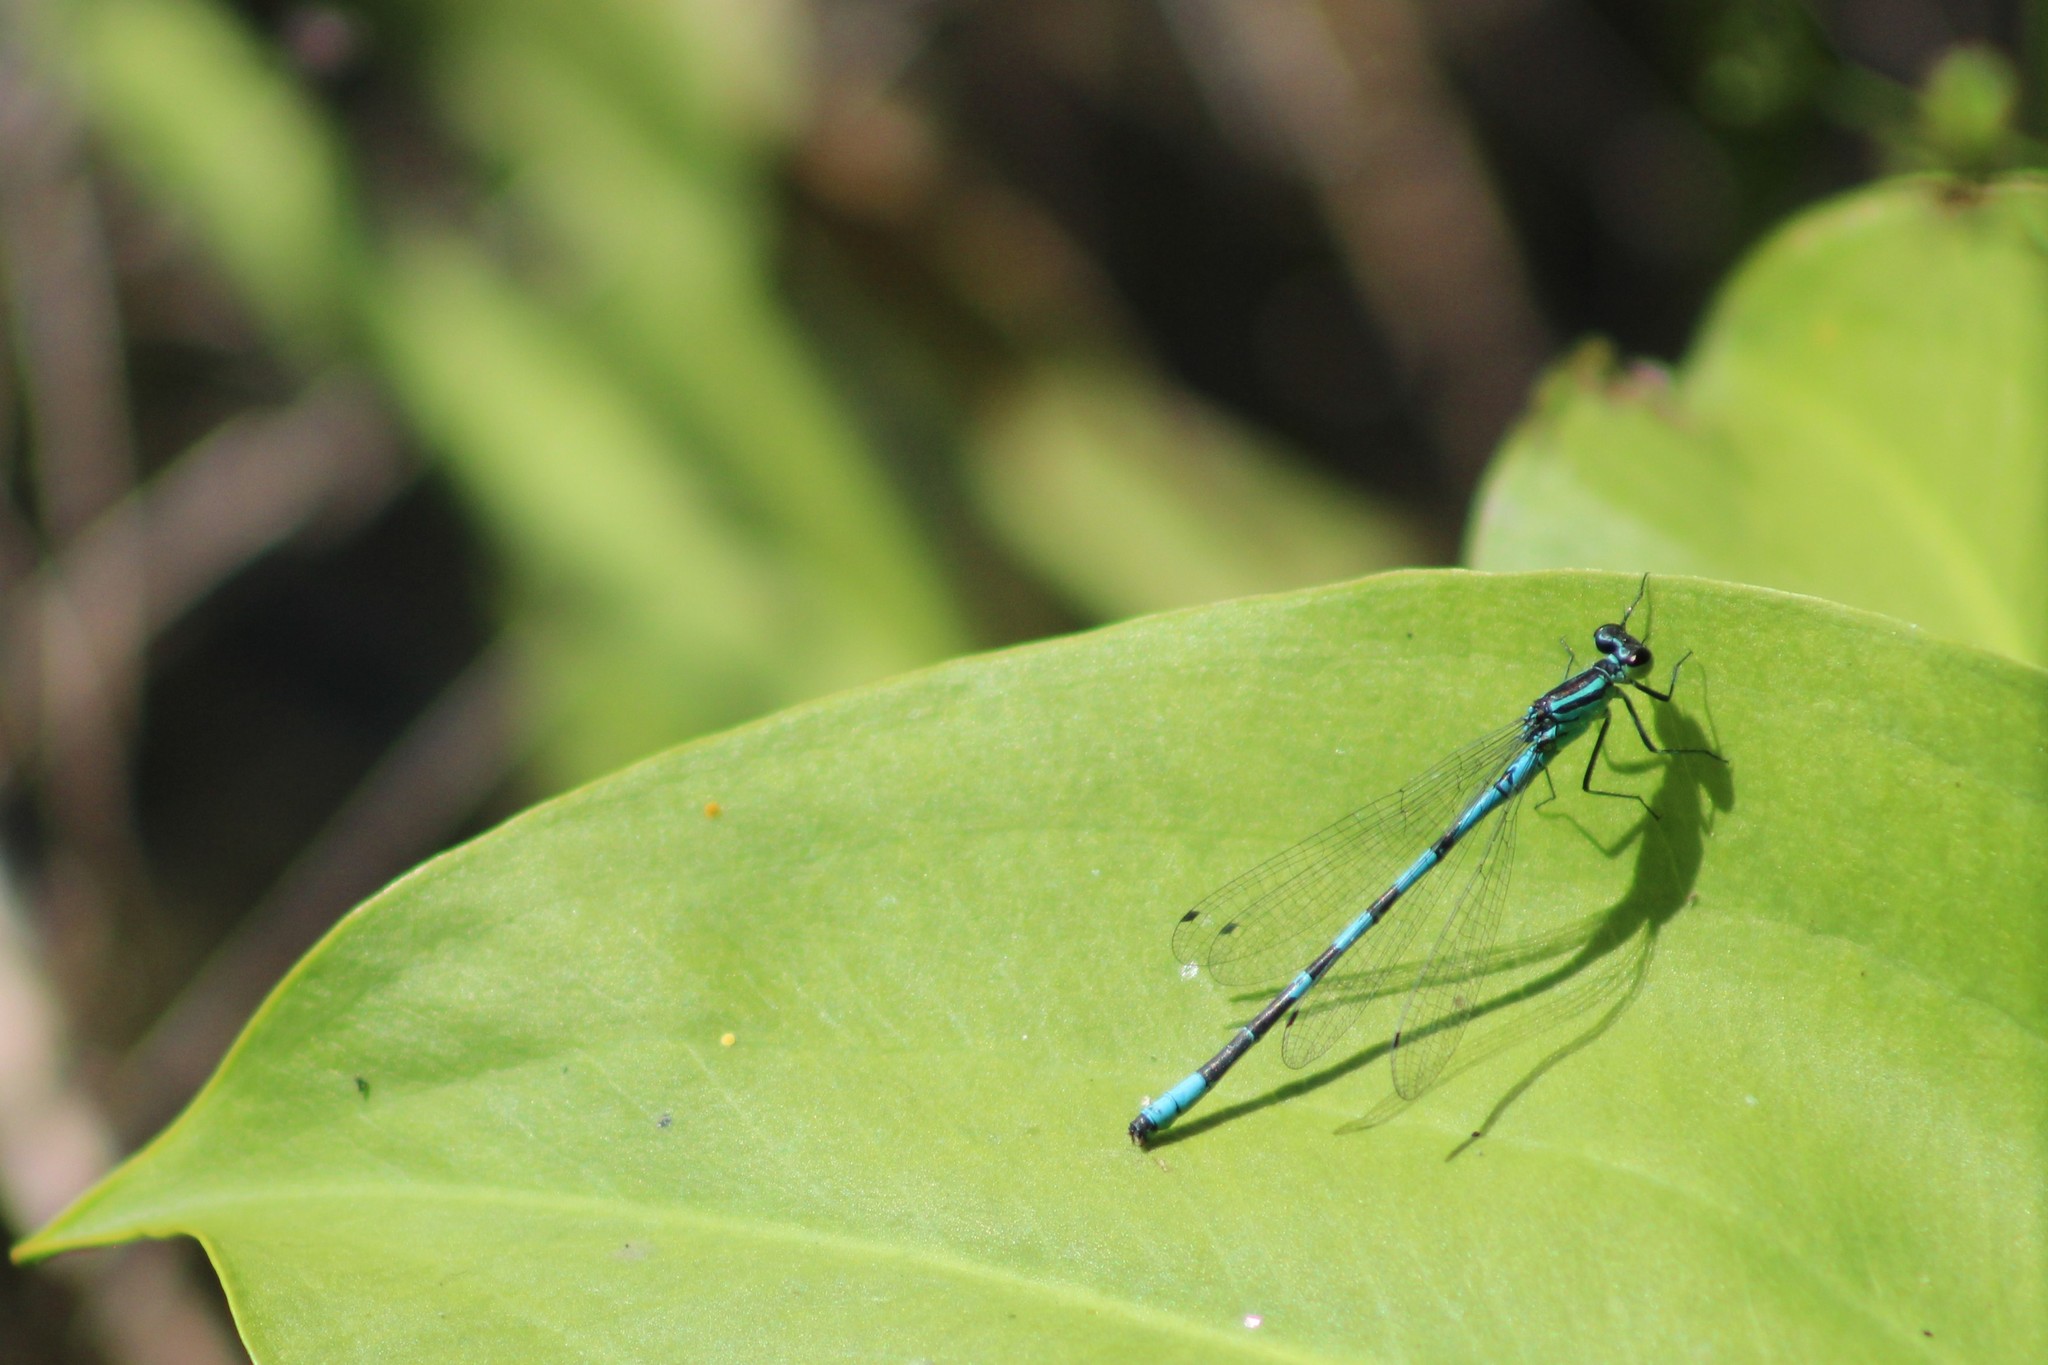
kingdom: Animalia
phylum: Arthropoda
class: Insecta
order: Odonata
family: Coenagrionidae
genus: Coenagrion
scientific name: Coenagrion hastulatum
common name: Spearhead bluet
